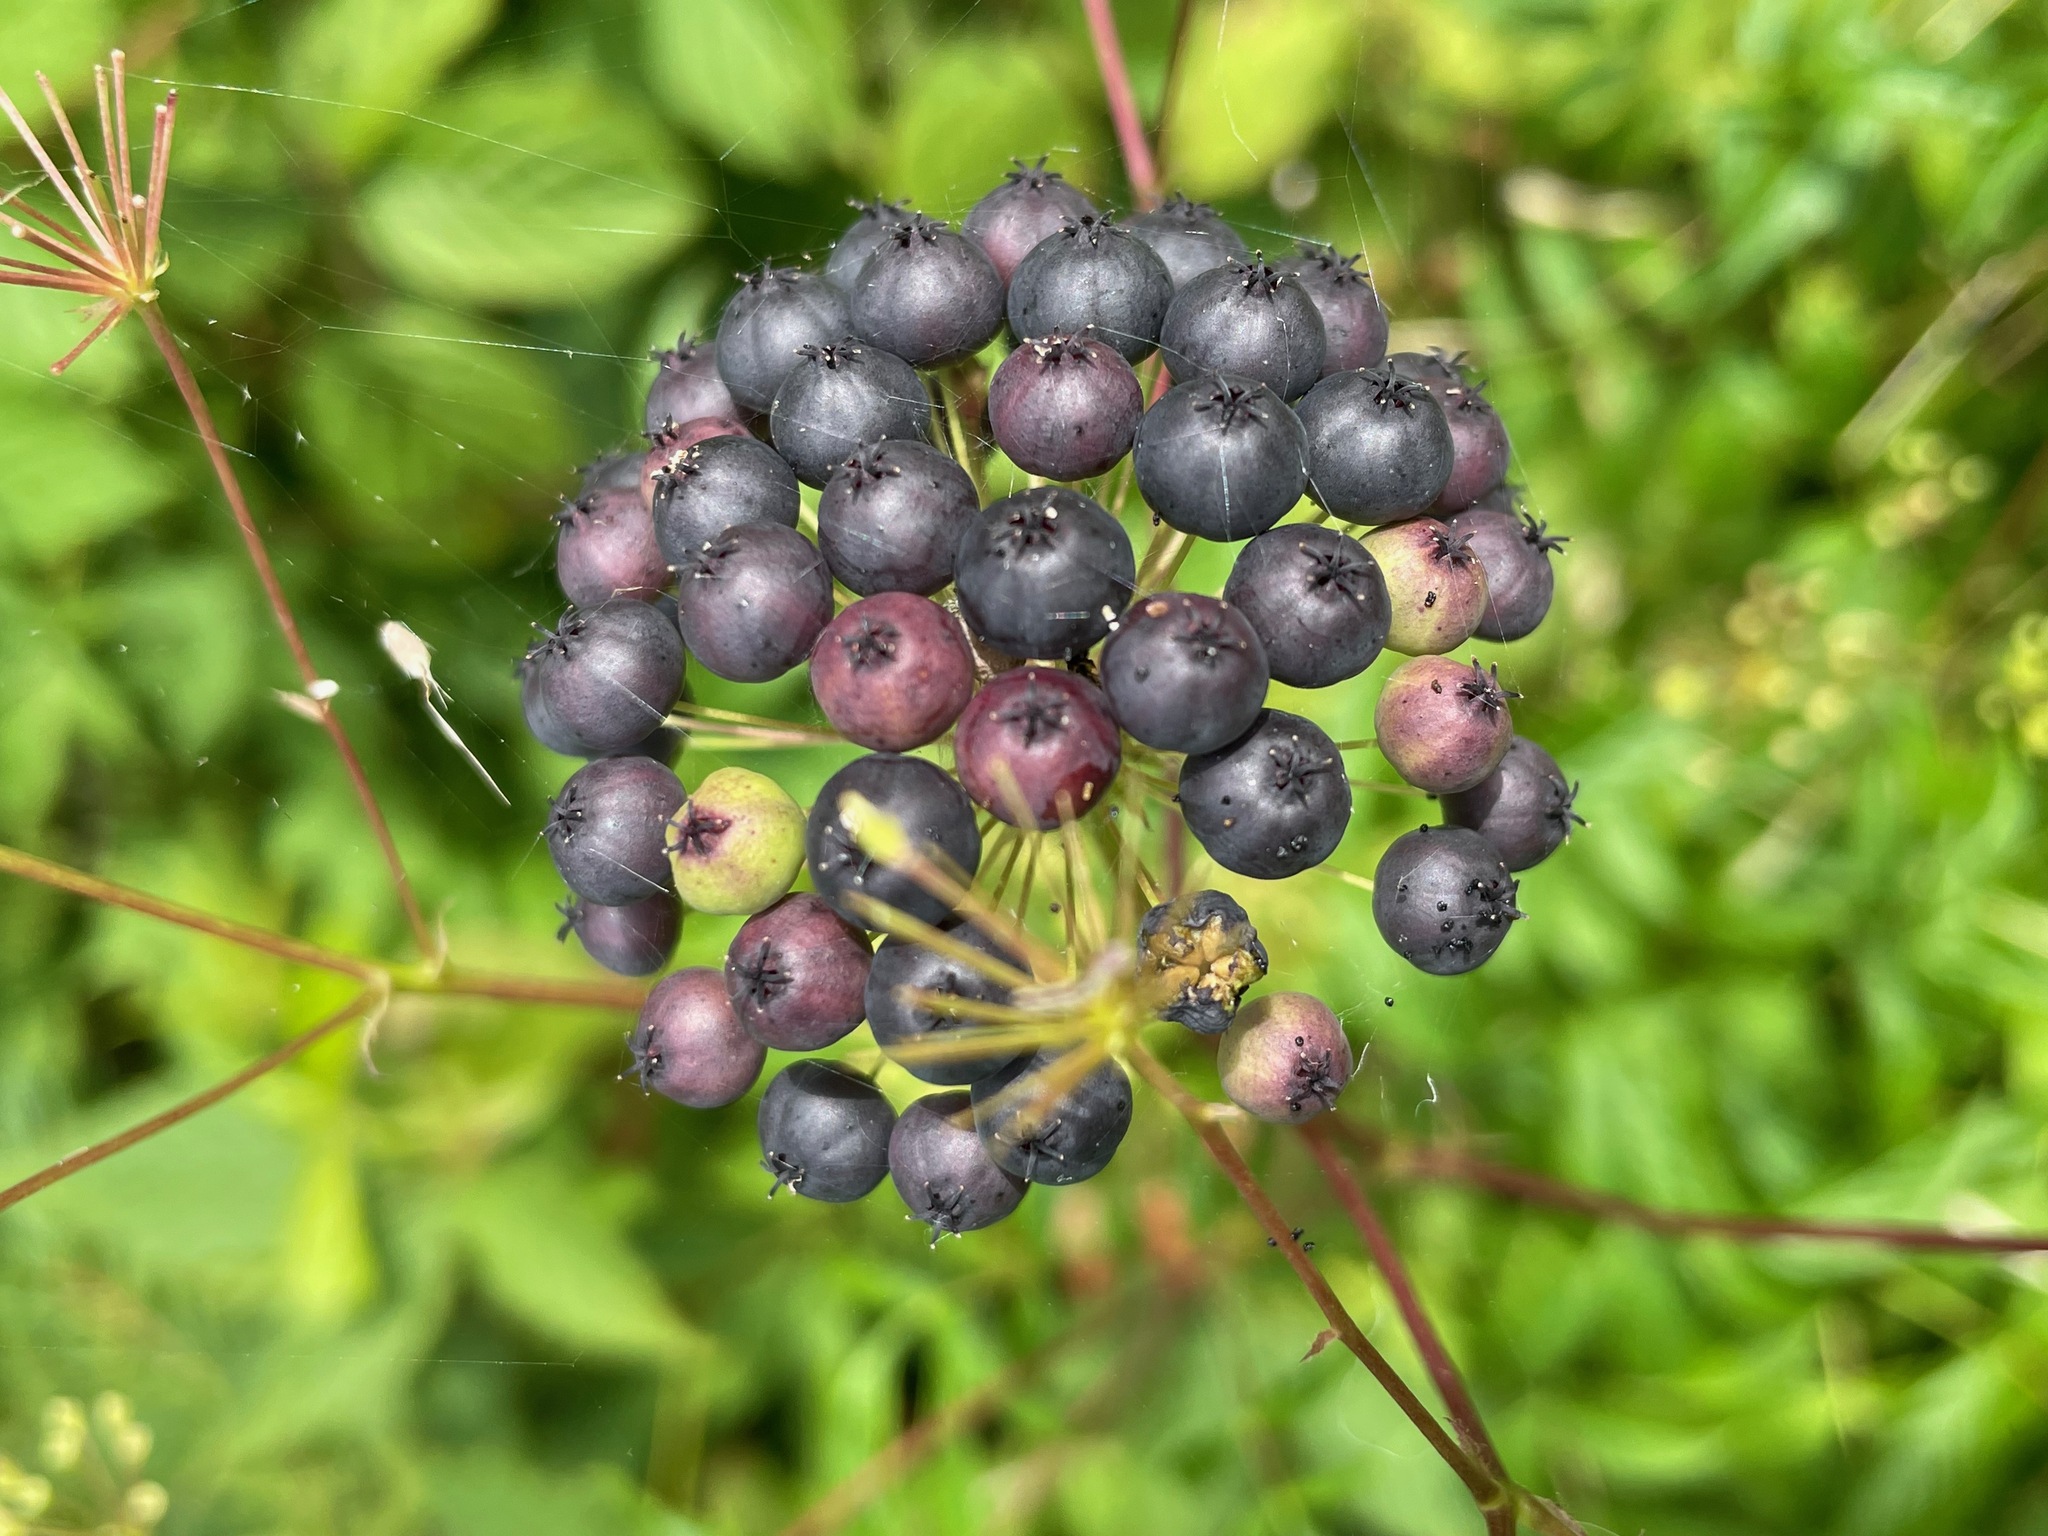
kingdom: Plantae
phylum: Tracheophyta
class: Magnoliopsida
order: Apiales
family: Araliaceae
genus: Aralia
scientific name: Aralia hispida
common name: Bristly sarsaparilla
